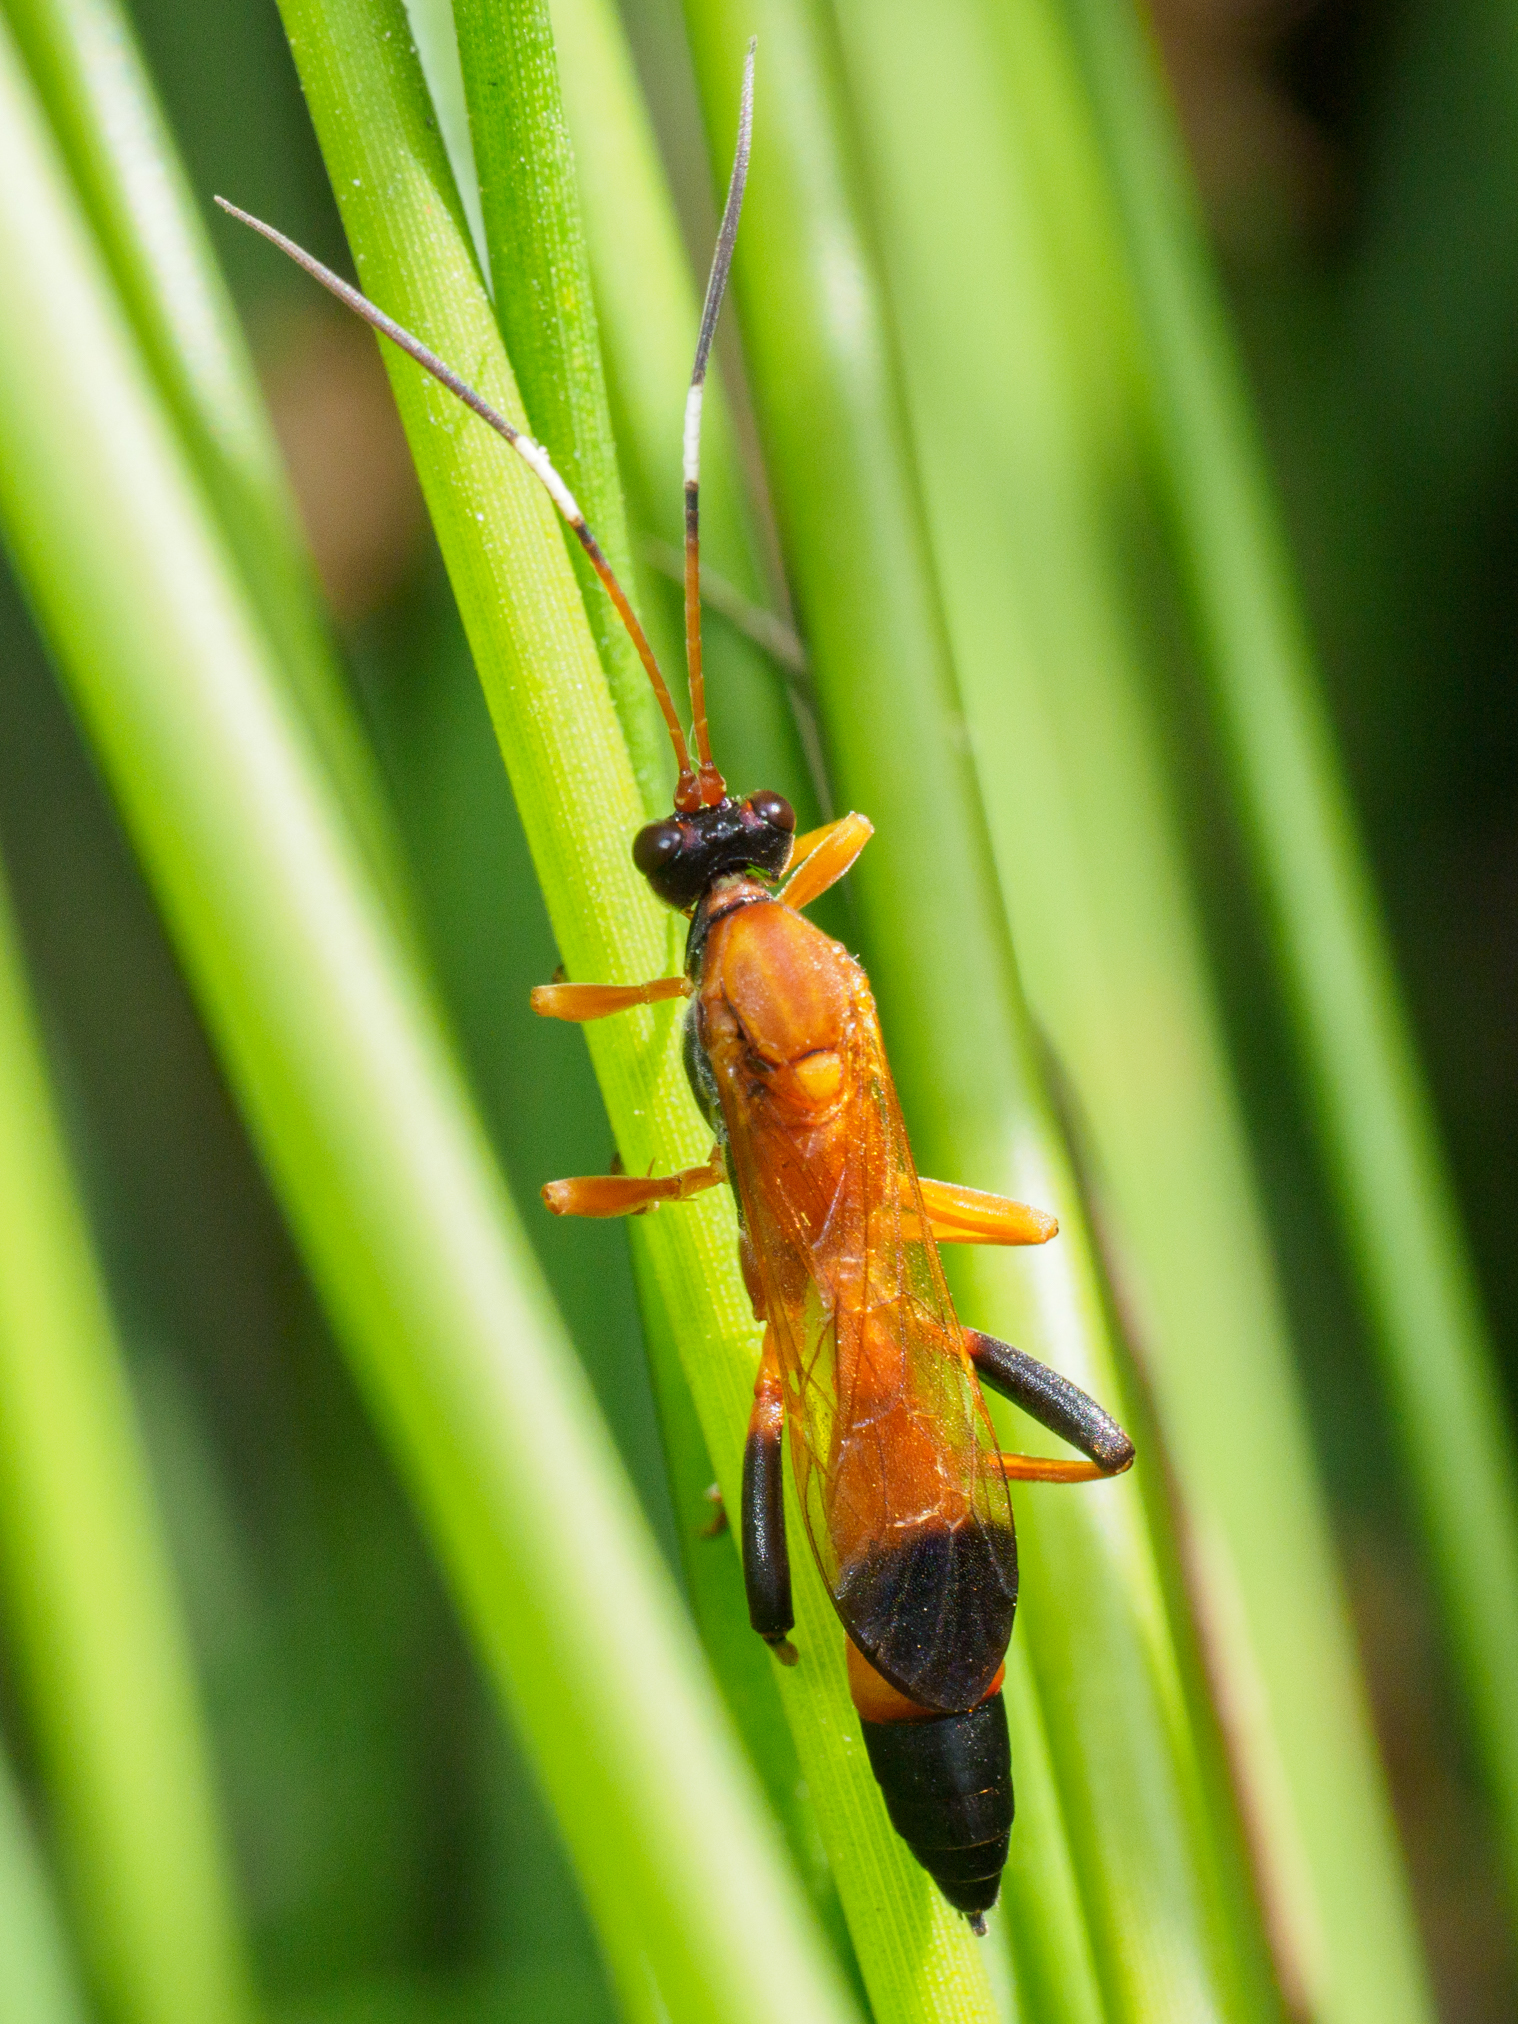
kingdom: Animalia
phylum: Arthropoda
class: Insecta
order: Hymenoptera
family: Ichneumonidae
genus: Ctenochares
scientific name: Ctenochares bicolorus
